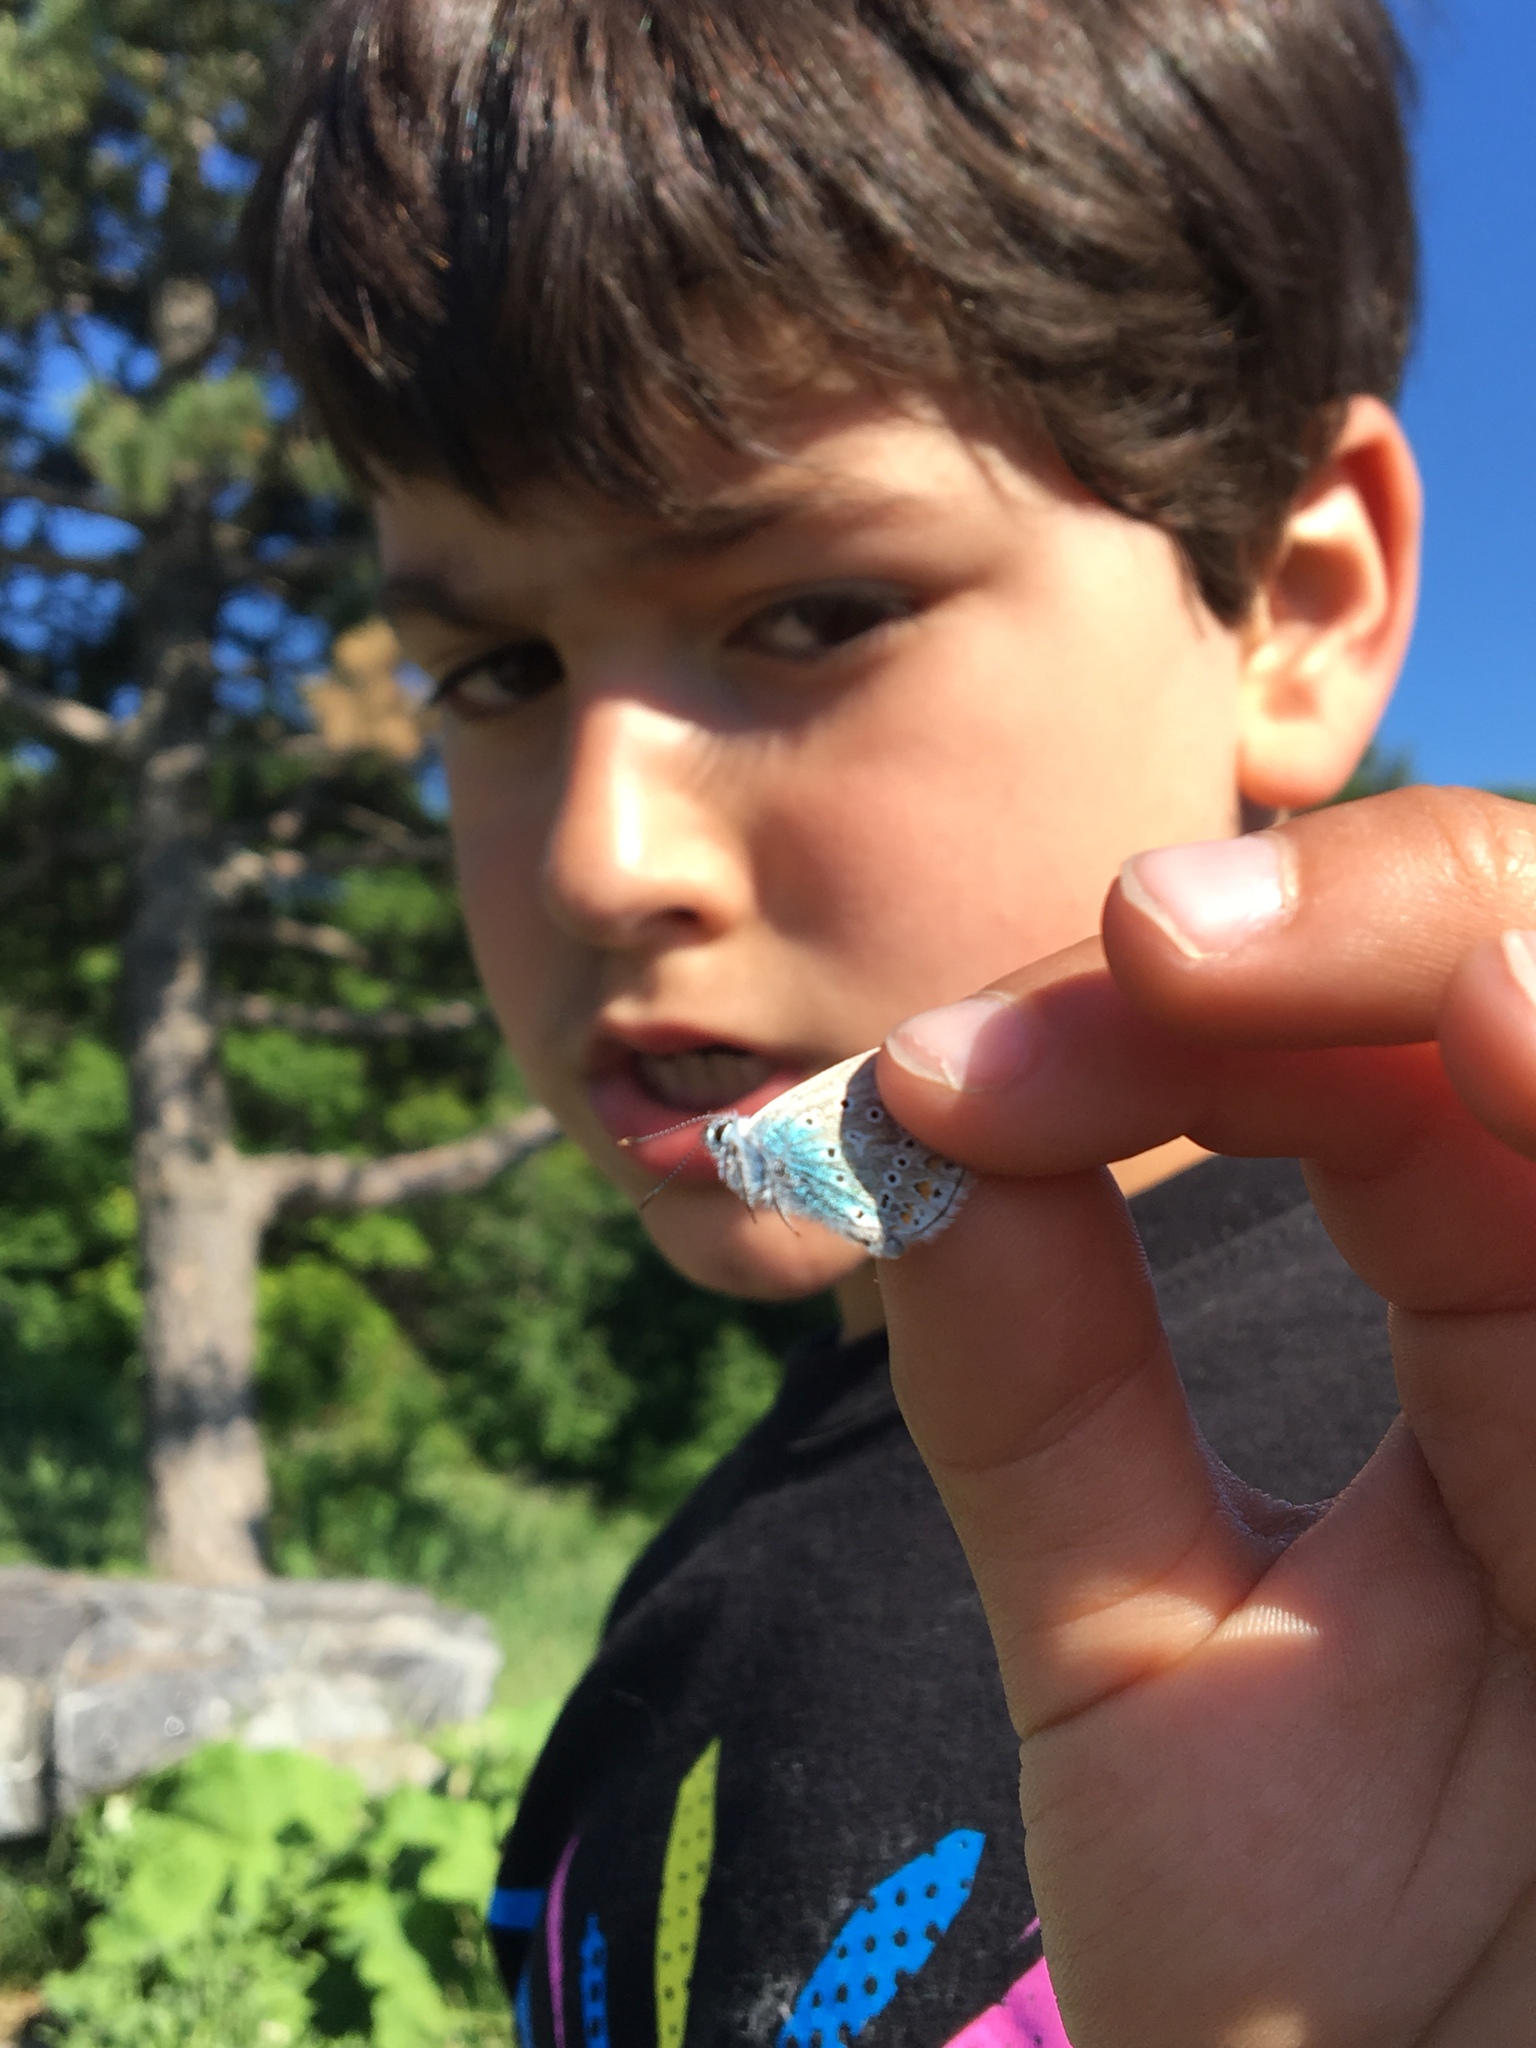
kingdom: Animalia
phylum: Arthropoda
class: Insecta
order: Lepidoptera
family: Lycaenidae
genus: Polyommatus
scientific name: Polyommatus icarus
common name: Common blue
